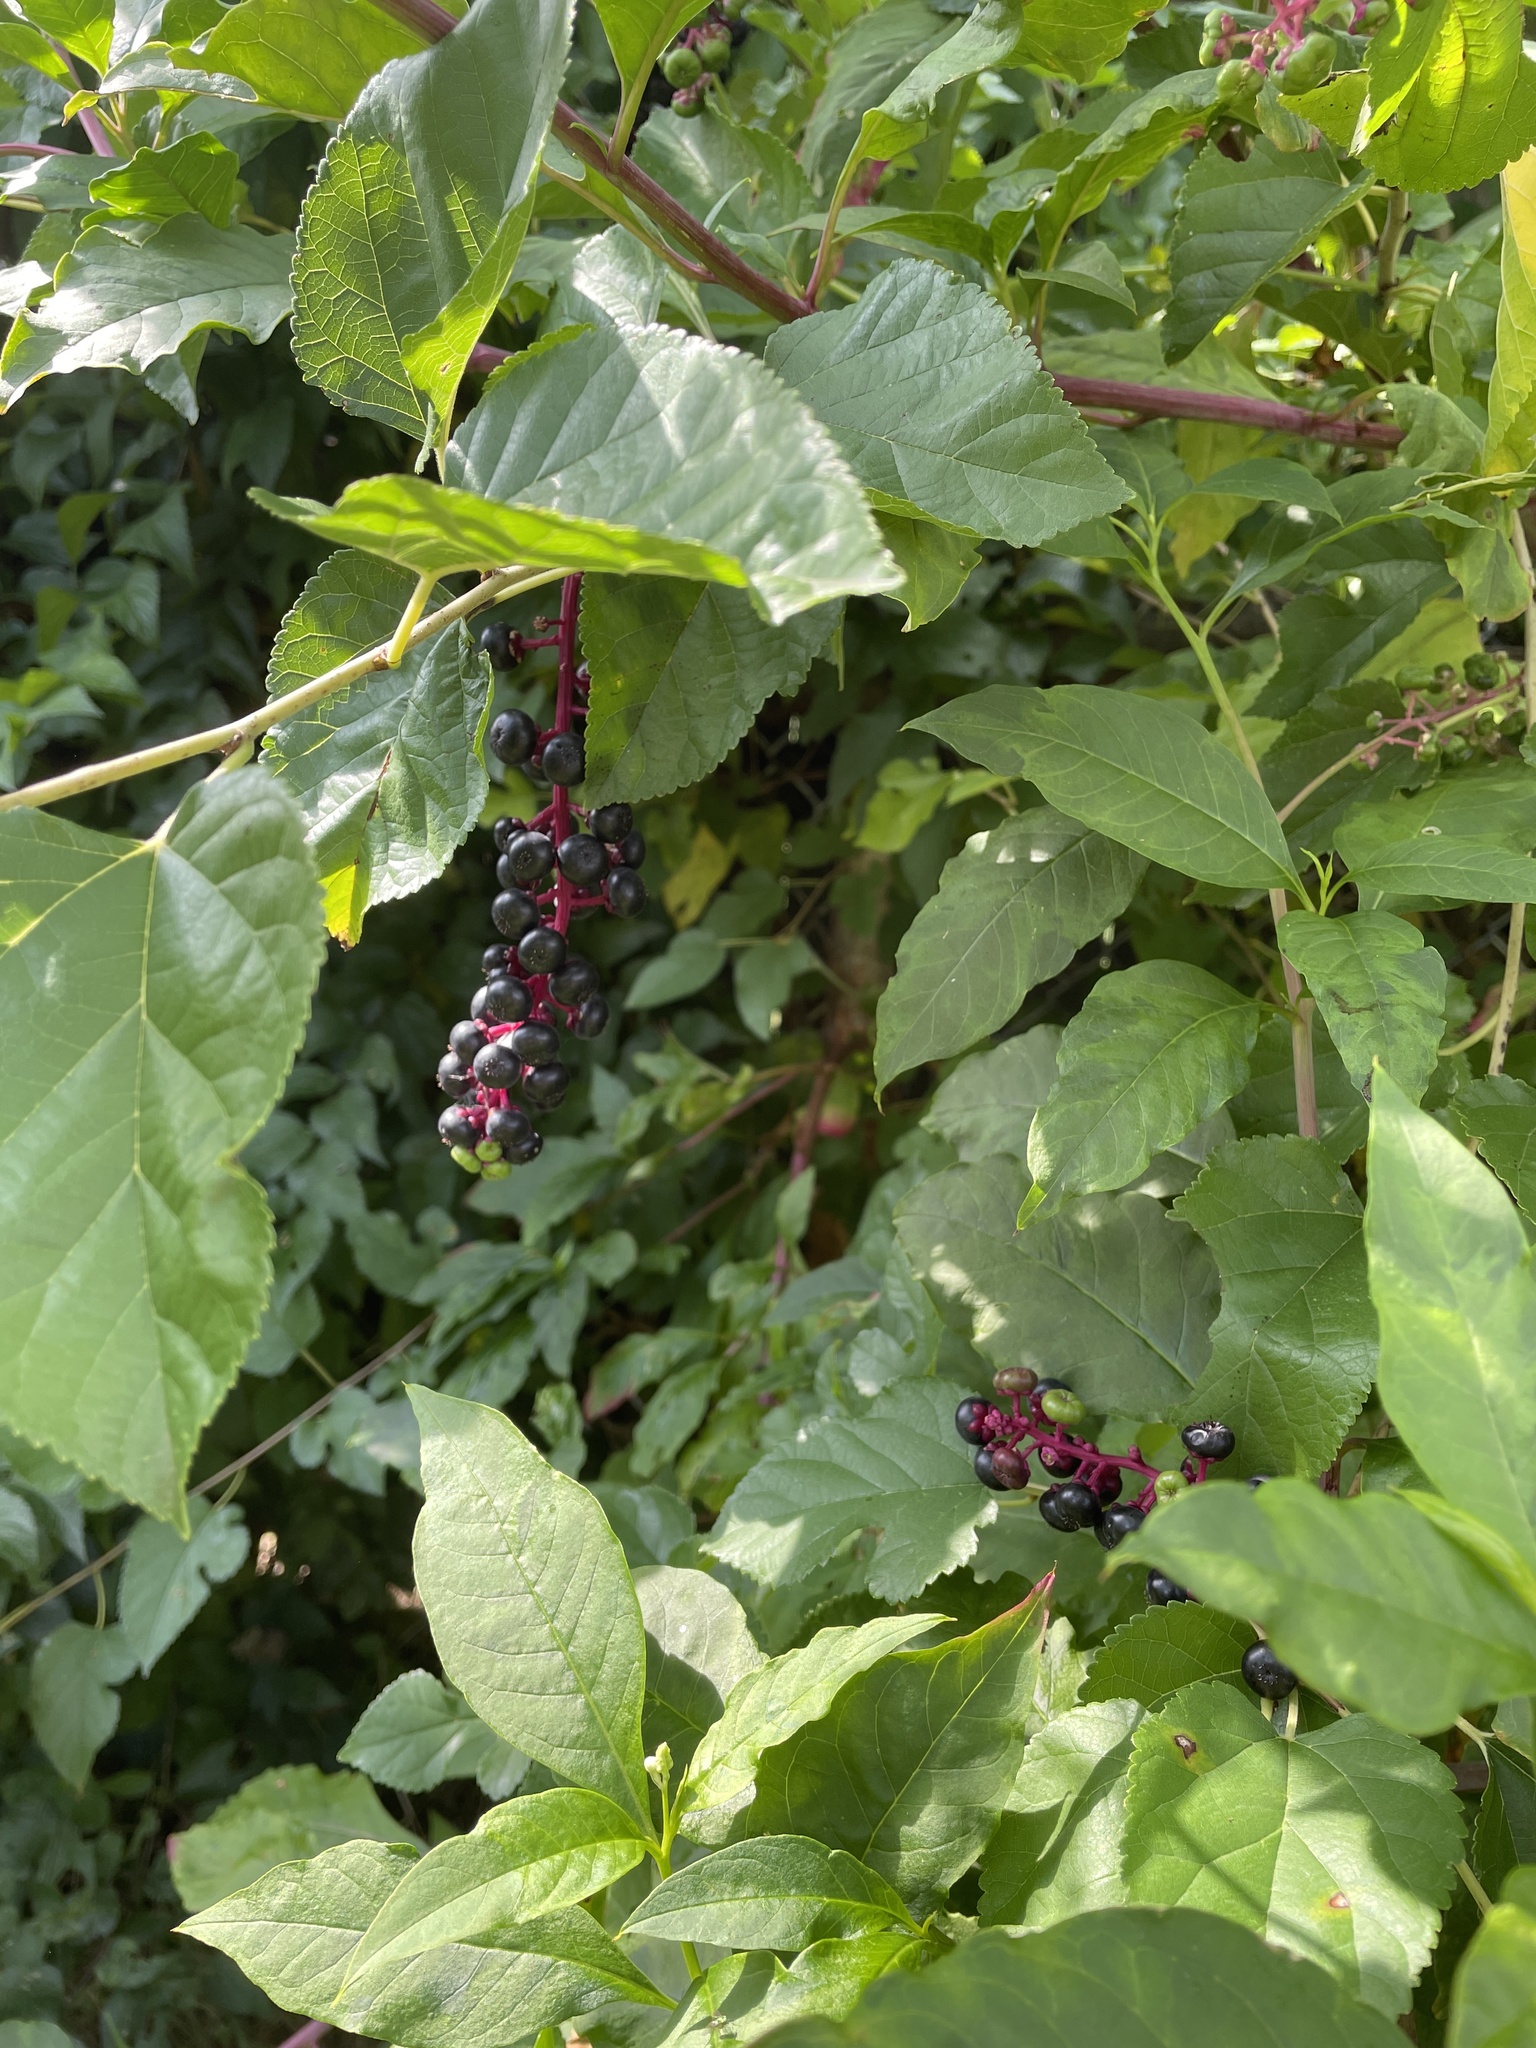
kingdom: Plantae
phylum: Tracheophyta
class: Magnoliopsida
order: Caryophyllales
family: Phytolaccaceae
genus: Phytolacca
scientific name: Phytolacca americana
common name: American pokeweed
